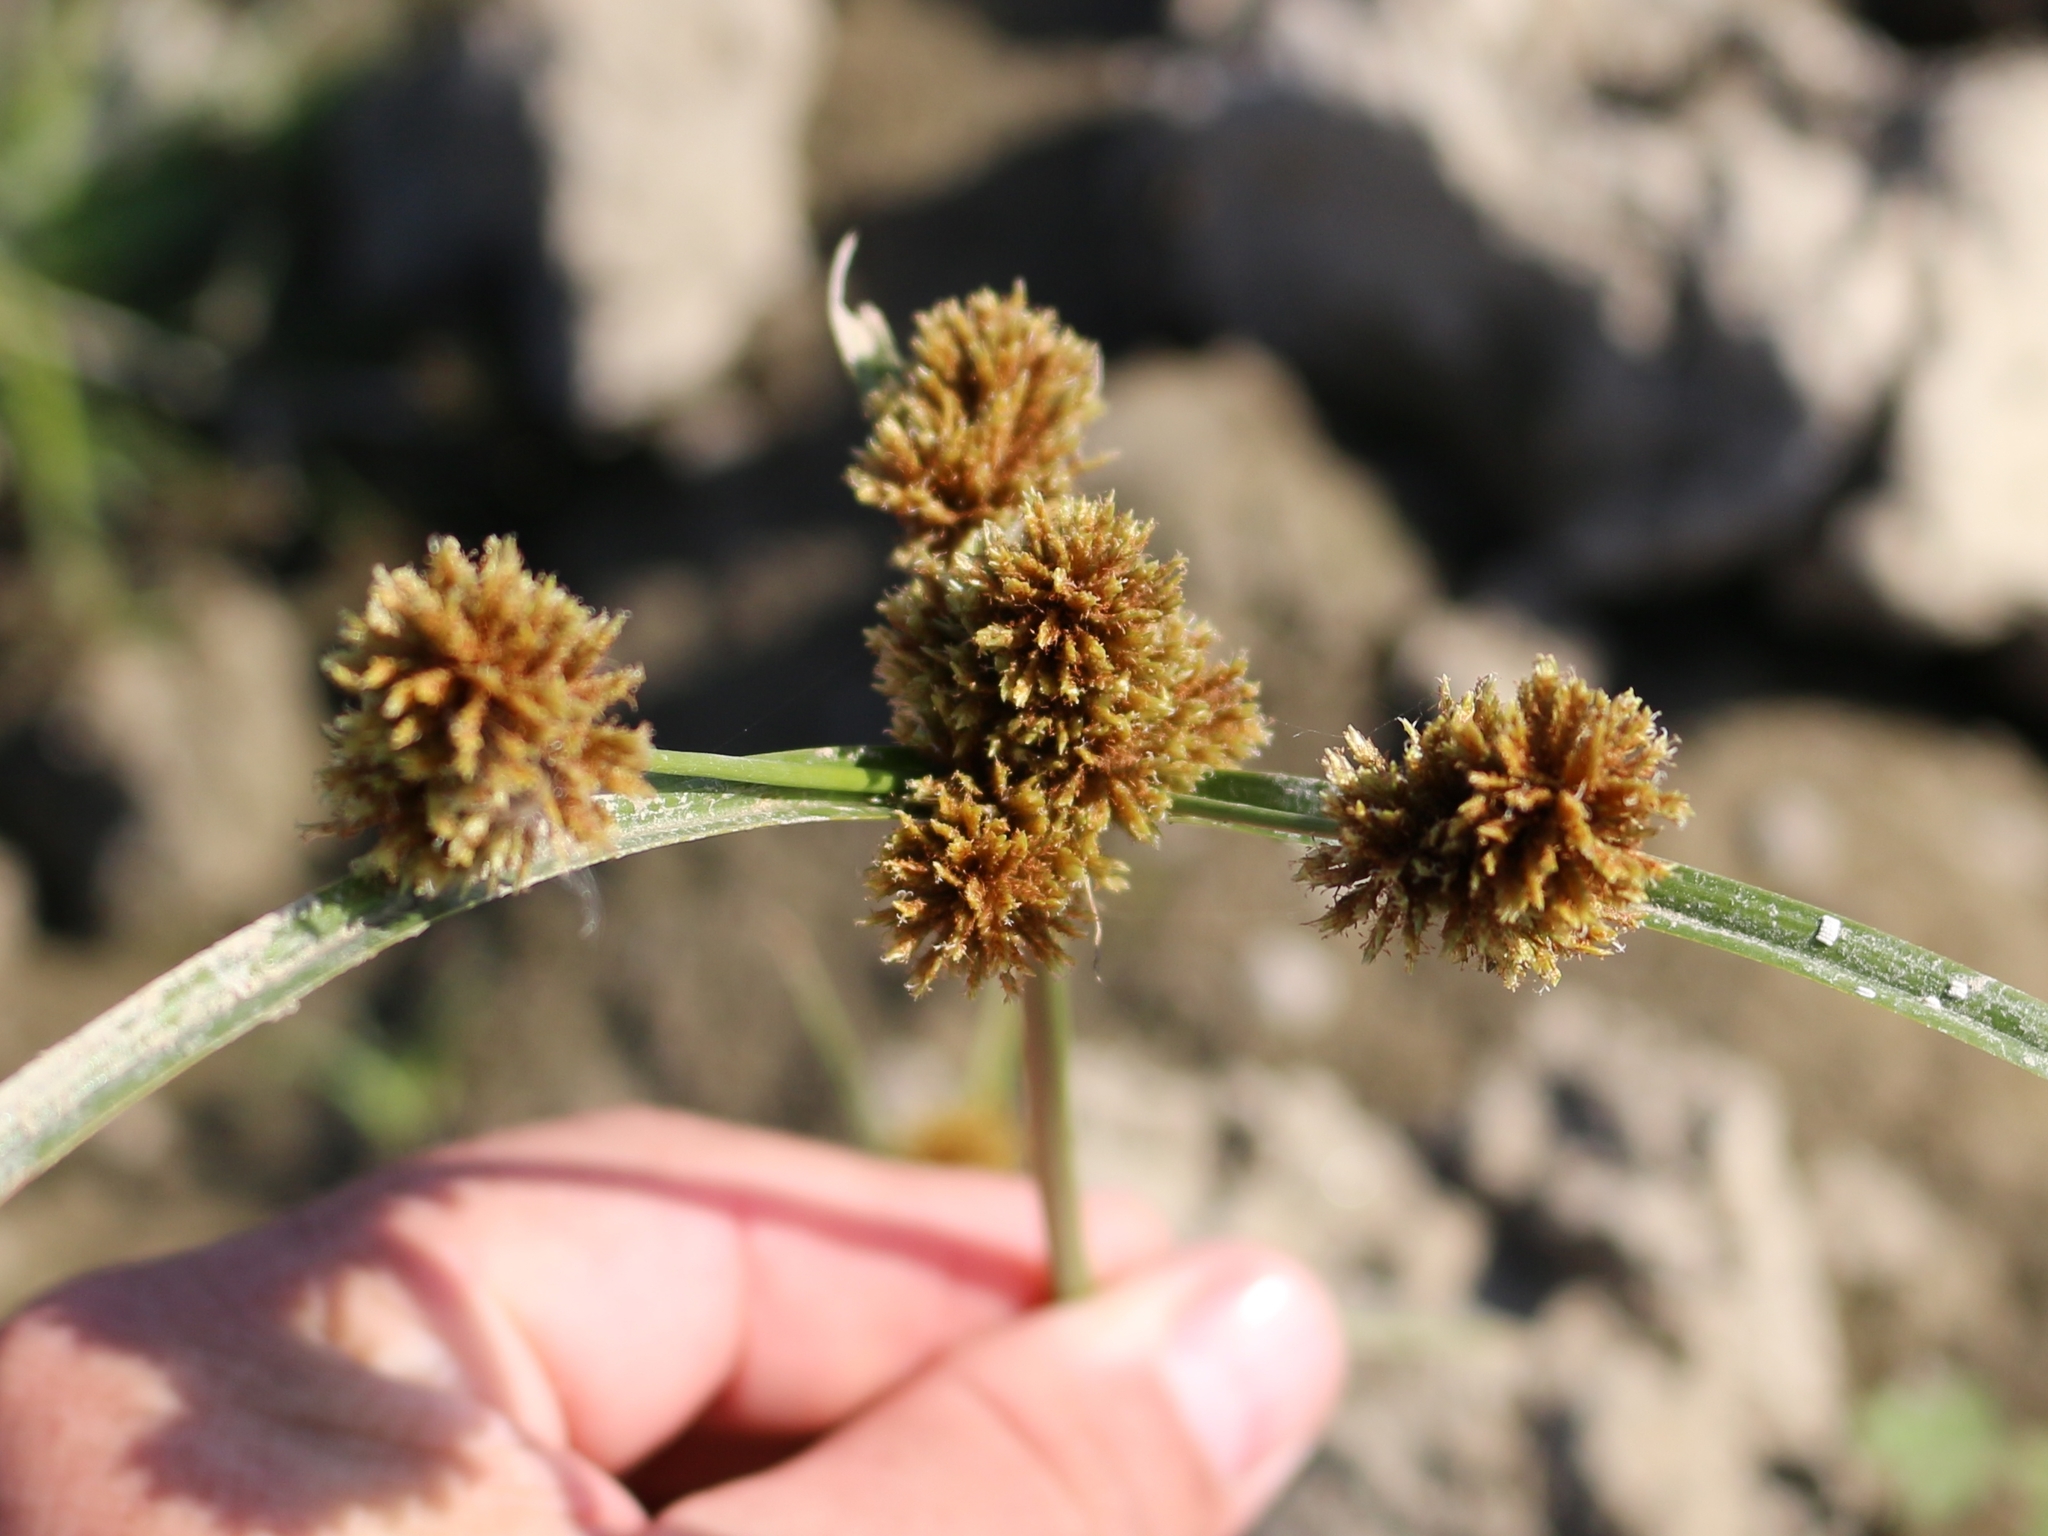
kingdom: Plantae
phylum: Tracheophyta
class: Liliopsida
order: Poales
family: Cyperaceae
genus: Cyperus
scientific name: Cyperus glomeratus
